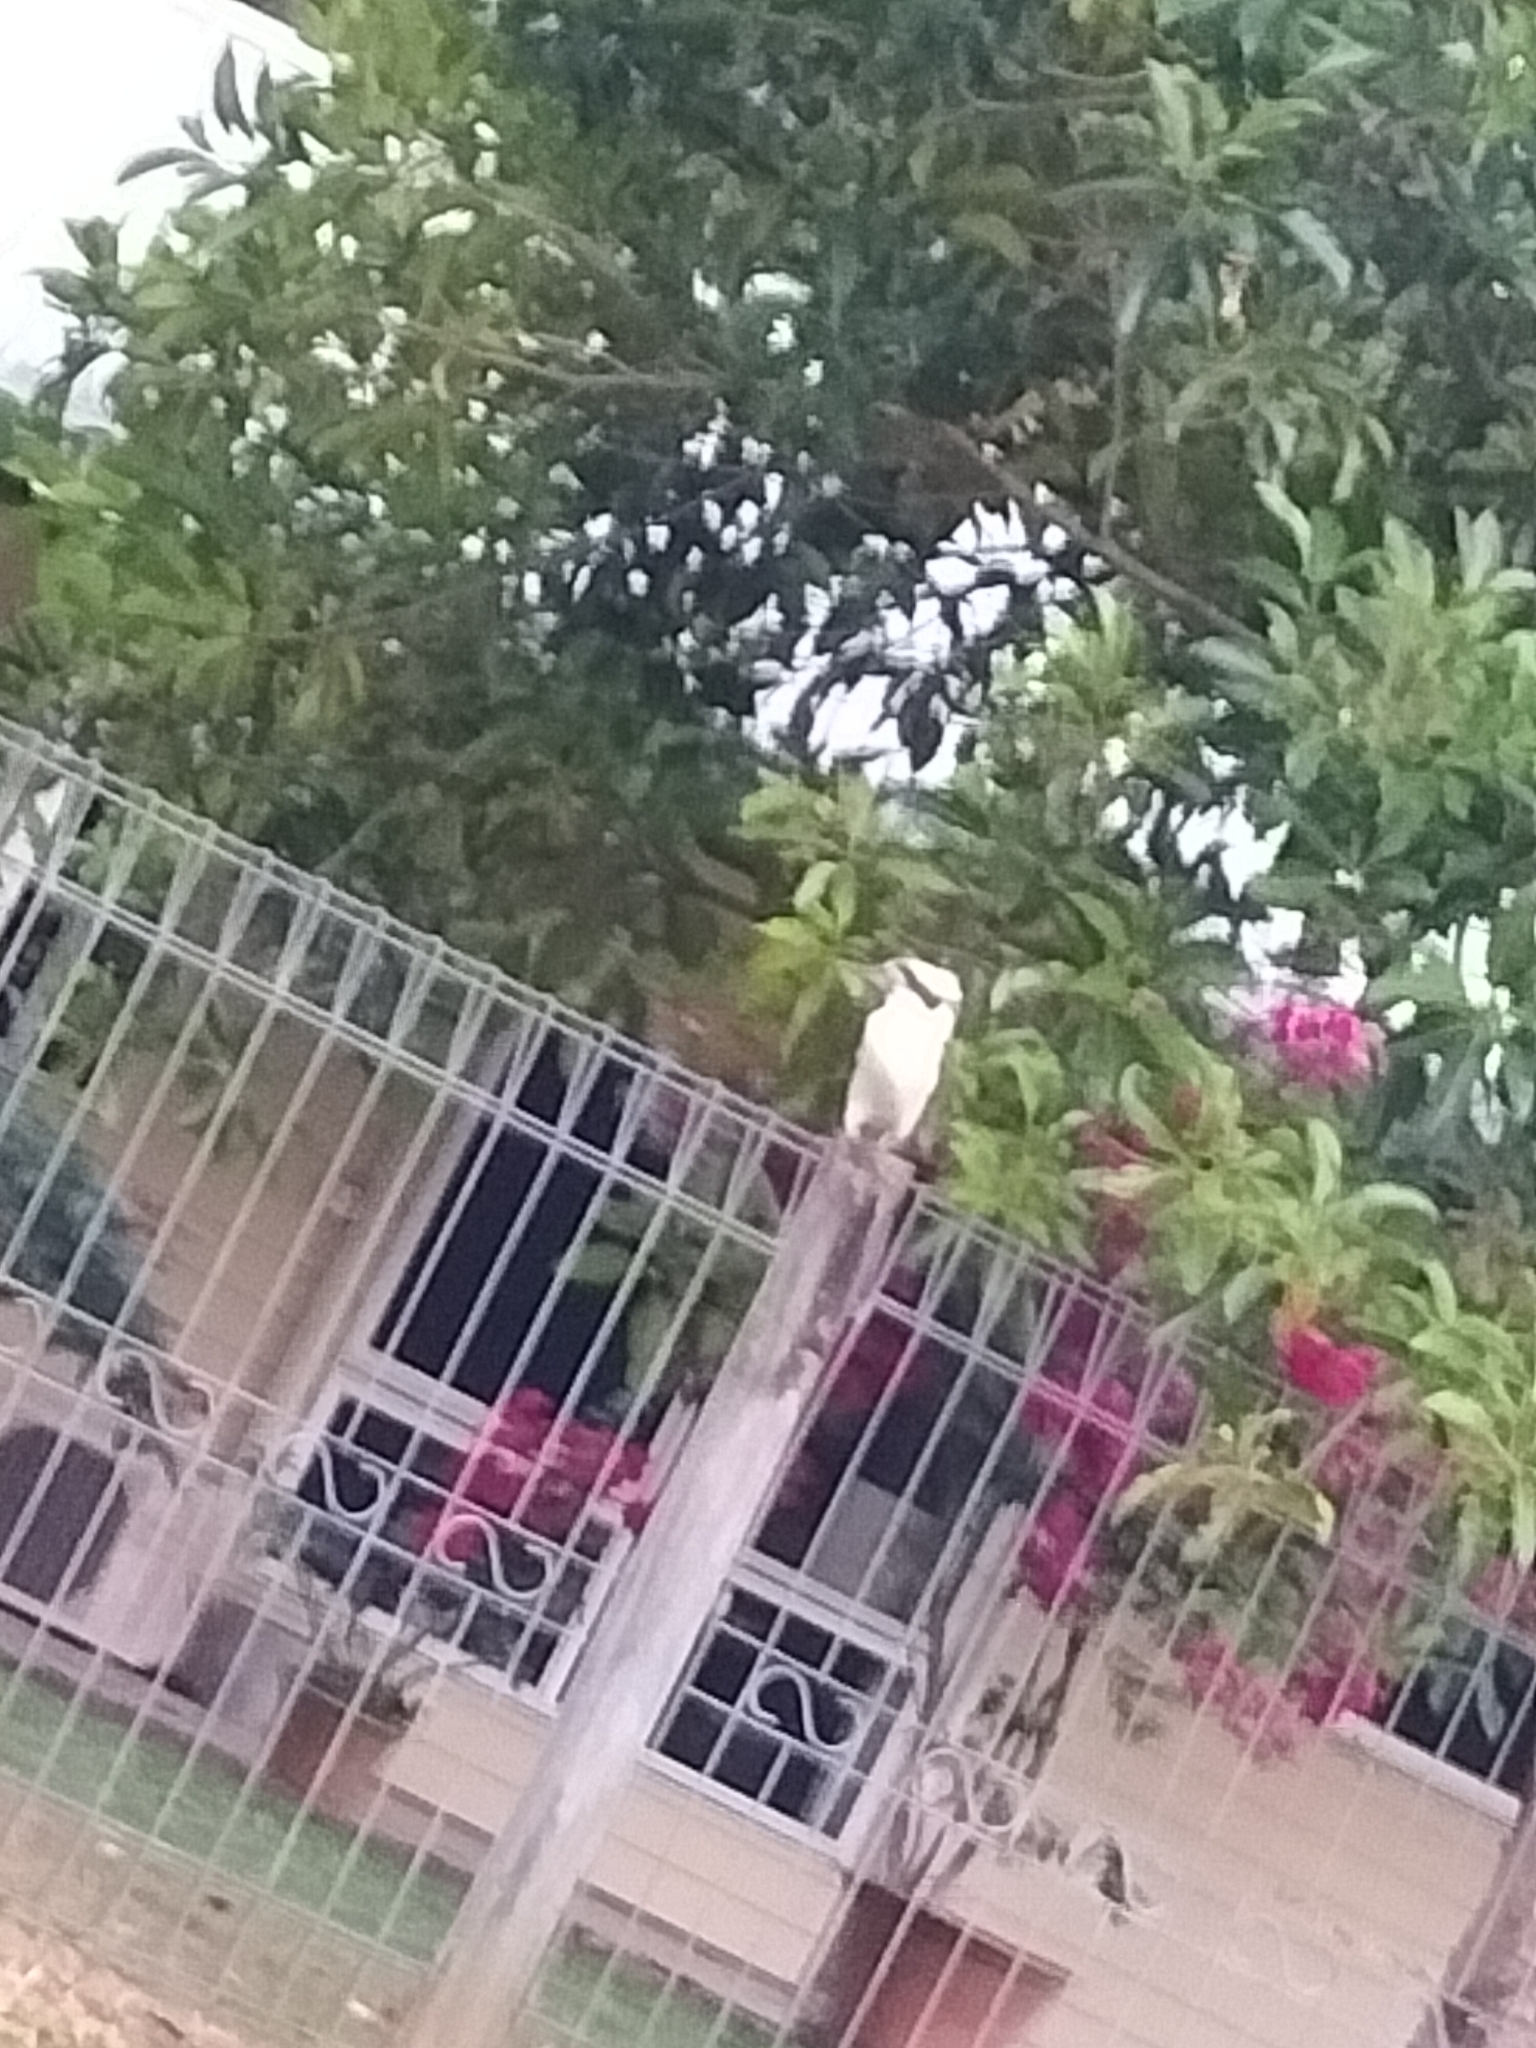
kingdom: Animalia
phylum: Chordata
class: Aves
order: Coraciiformes
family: Alcedinidae
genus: Dacelo
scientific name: Dacelo novaeguineae
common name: Laughing kookaburra
